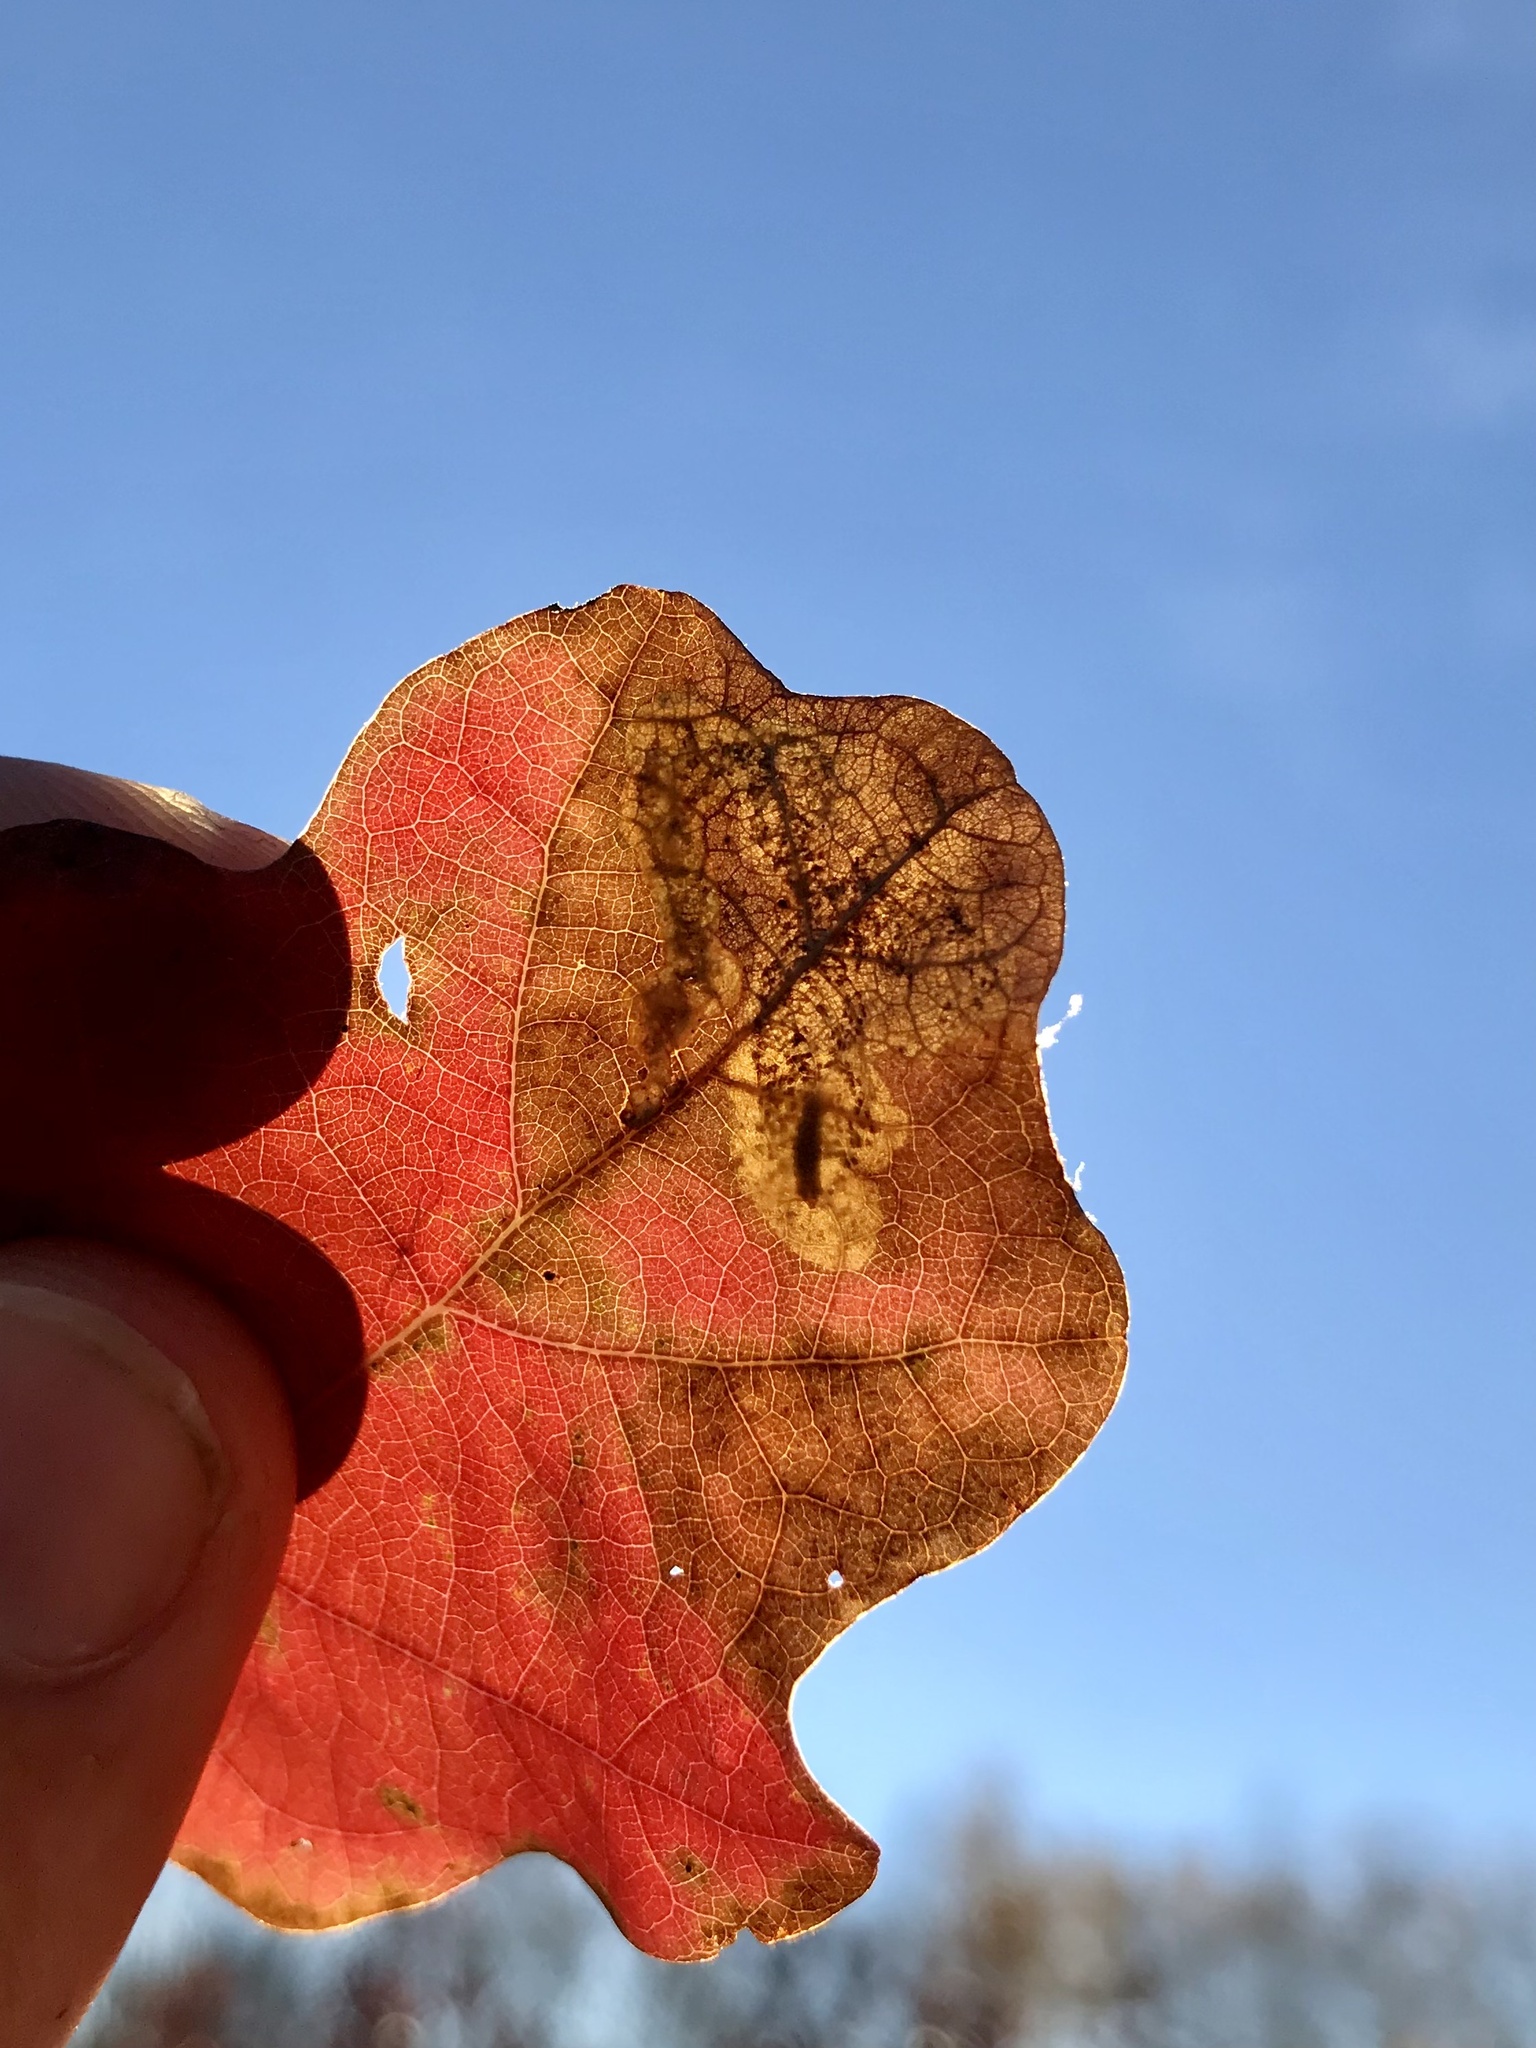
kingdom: Animalia
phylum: Arthropoda
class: Insecta
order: Lepidoptera
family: Gracillariidae
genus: Cameraria
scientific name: Cameraria
